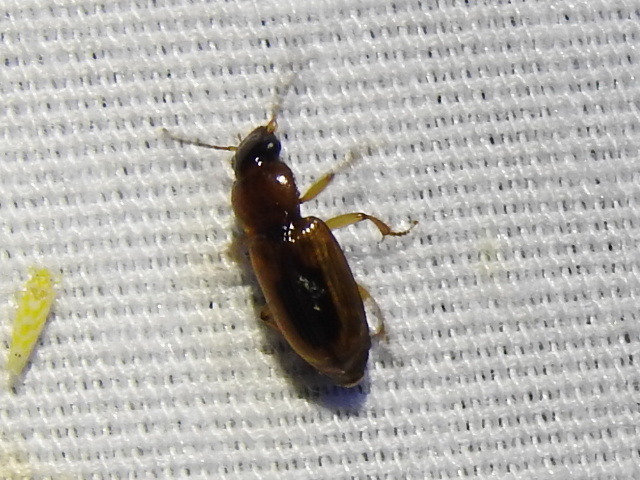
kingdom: Animalia
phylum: Arthropoda
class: Insecta
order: Coleoptera
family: Carabidae
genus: Stenolophus
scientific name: Stenolophus lecontei
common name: Leconte's seedcorn beetle
